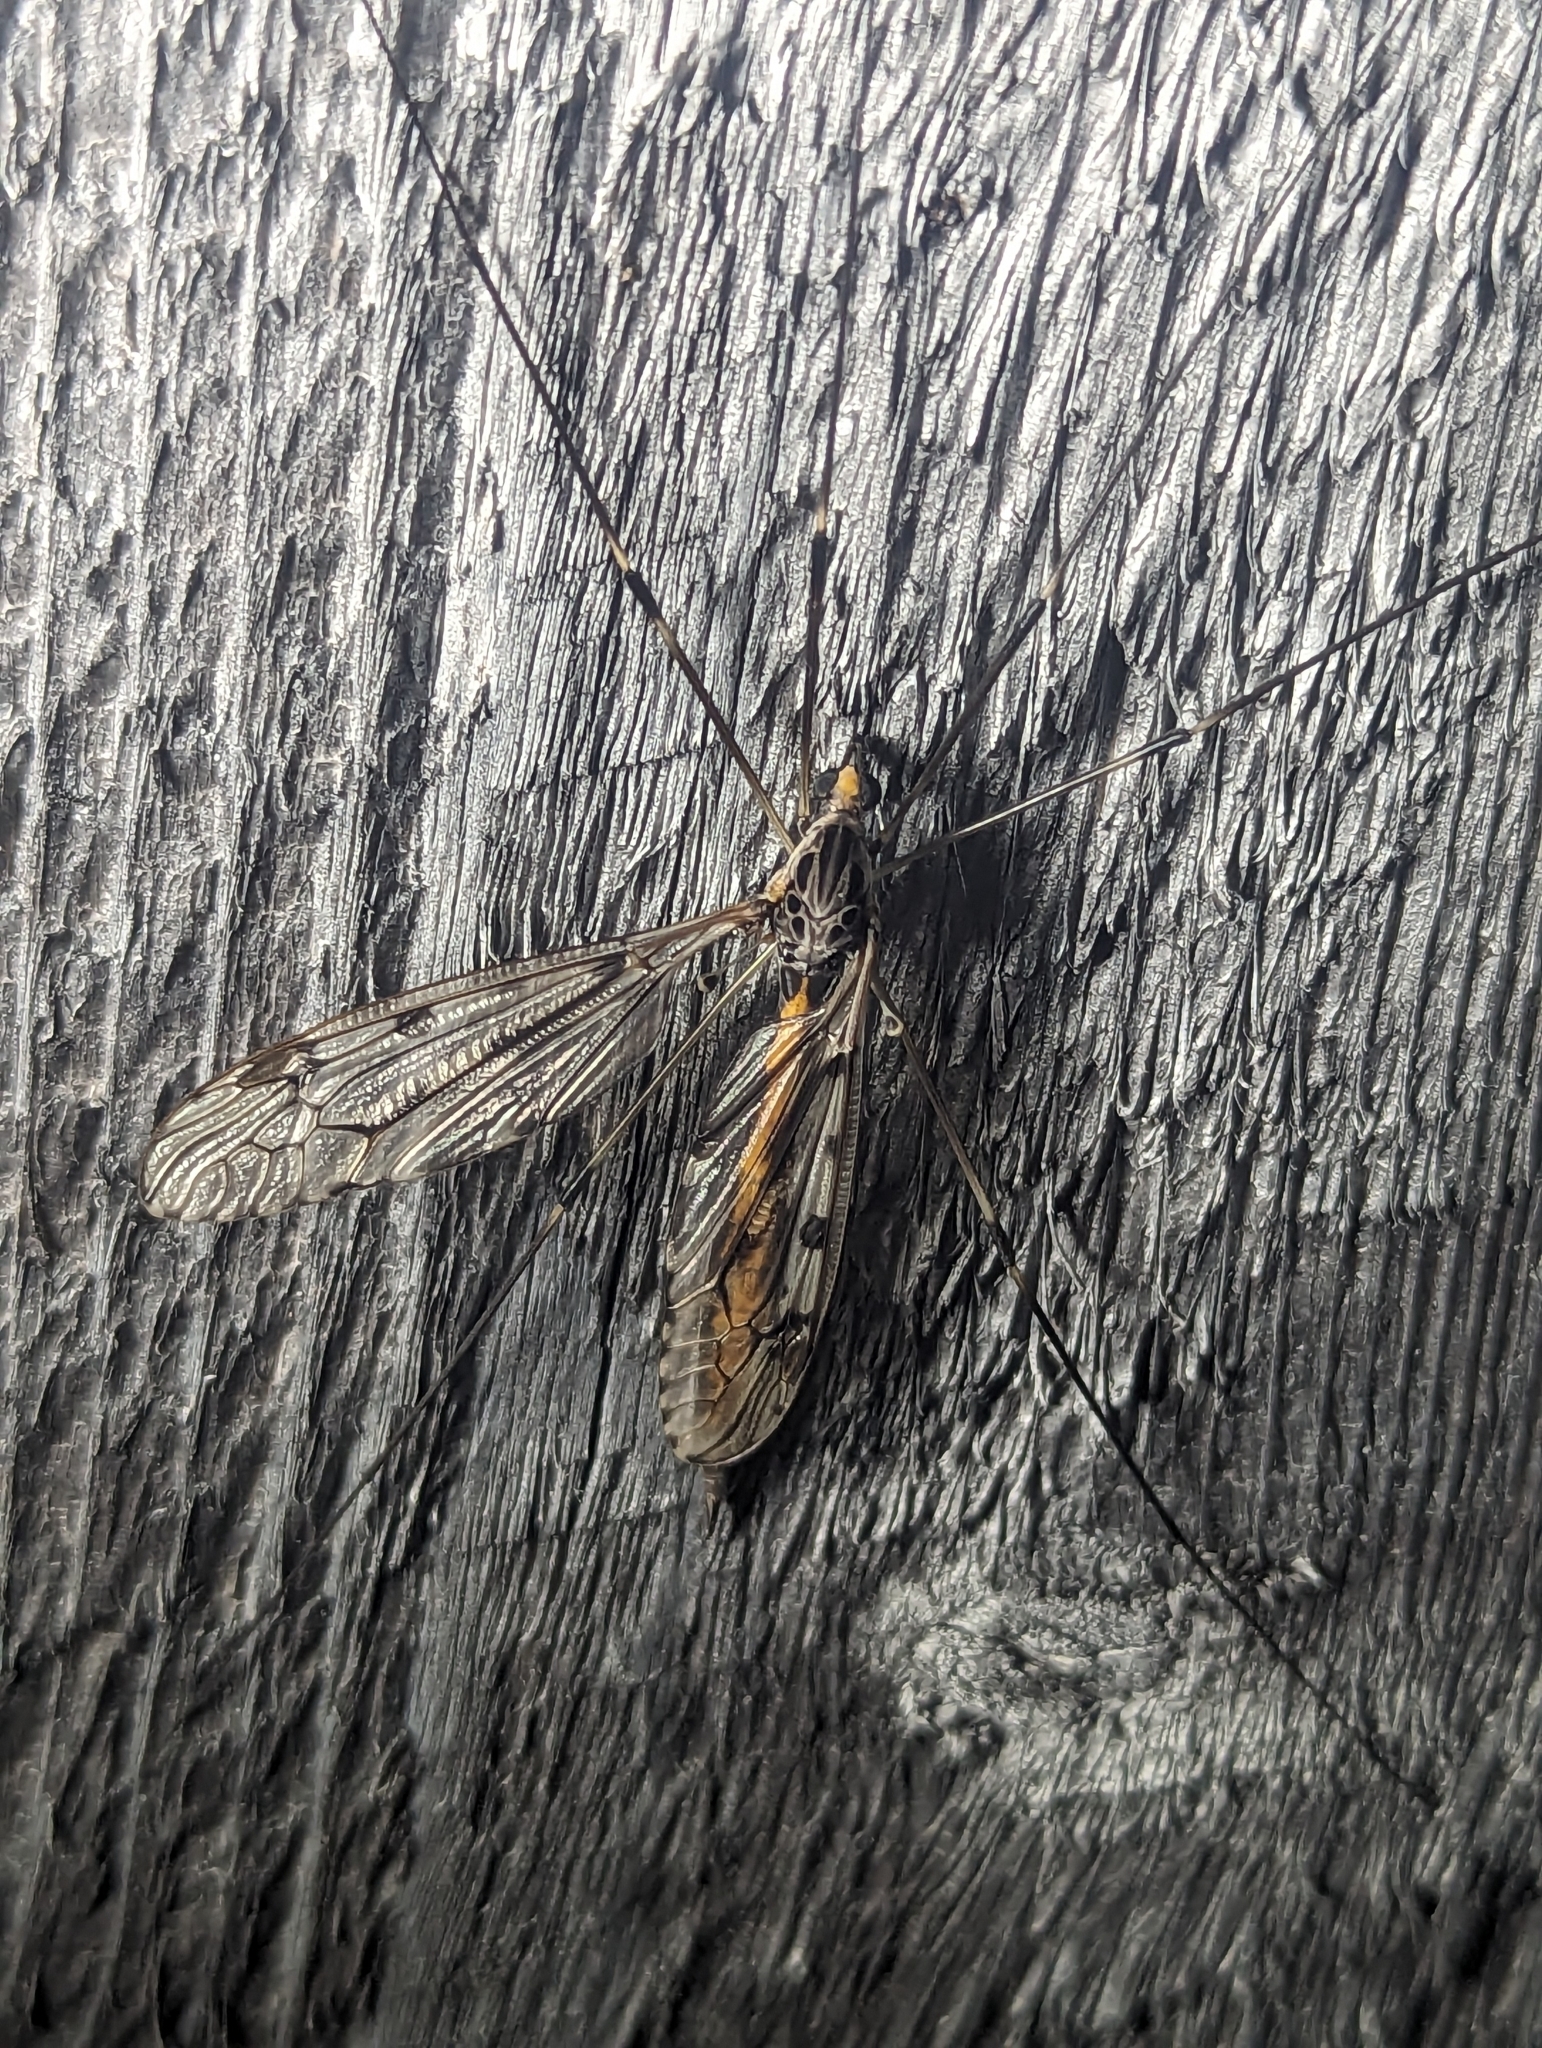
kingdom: Animalia
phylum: Arthropoda
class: Insecta
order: Diptera
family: Tipulidae
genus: Tipula
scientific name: Tipula abdominalis
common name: Giant crane fly
